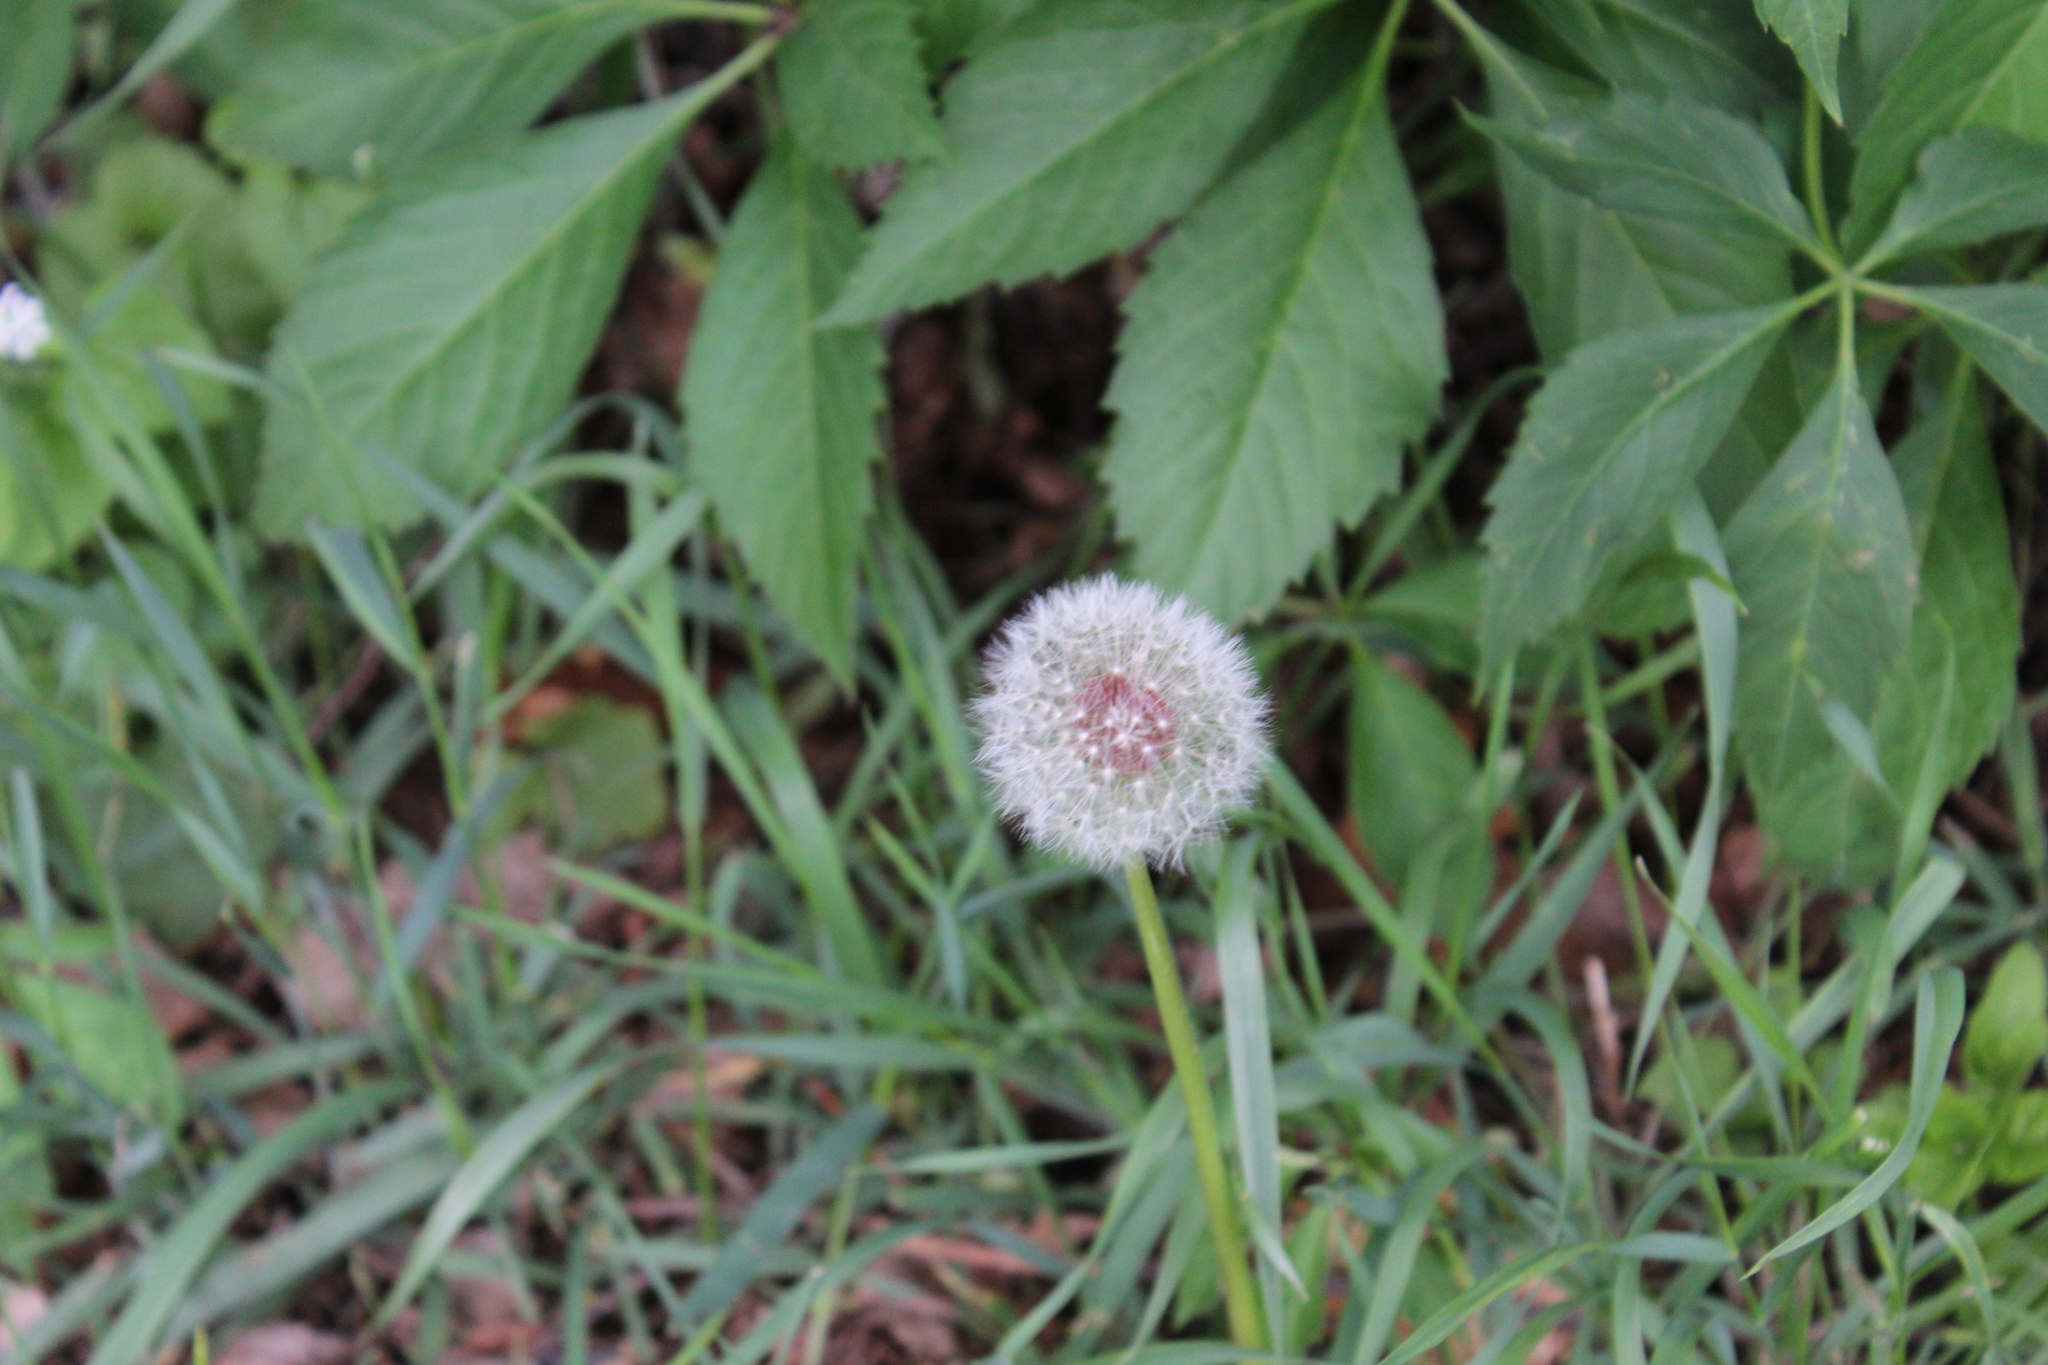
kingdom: Plantae
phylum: Tracheophyta
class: Magnoliopsida
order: Asterales
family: Asteraceae
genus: Taraxacum
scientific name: Taraxacum
